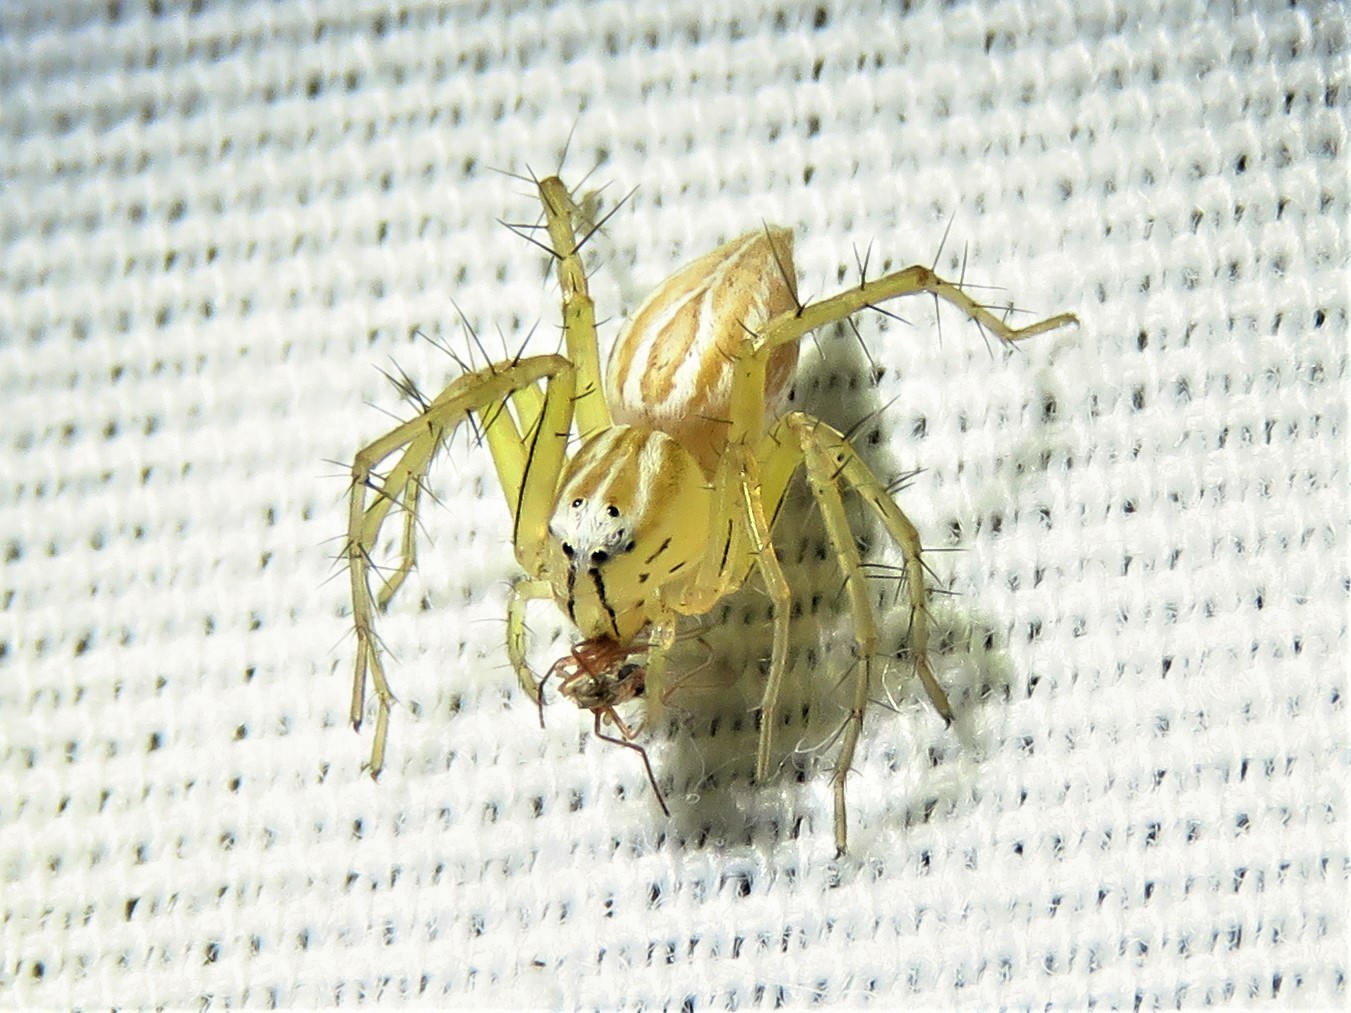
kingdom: Animalia
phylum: Arthropoda
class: Arachnida
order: Araneae
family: Oxyopidae
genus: Oxyopes
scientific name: Oxyopes salticus
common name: Lynx spiders
